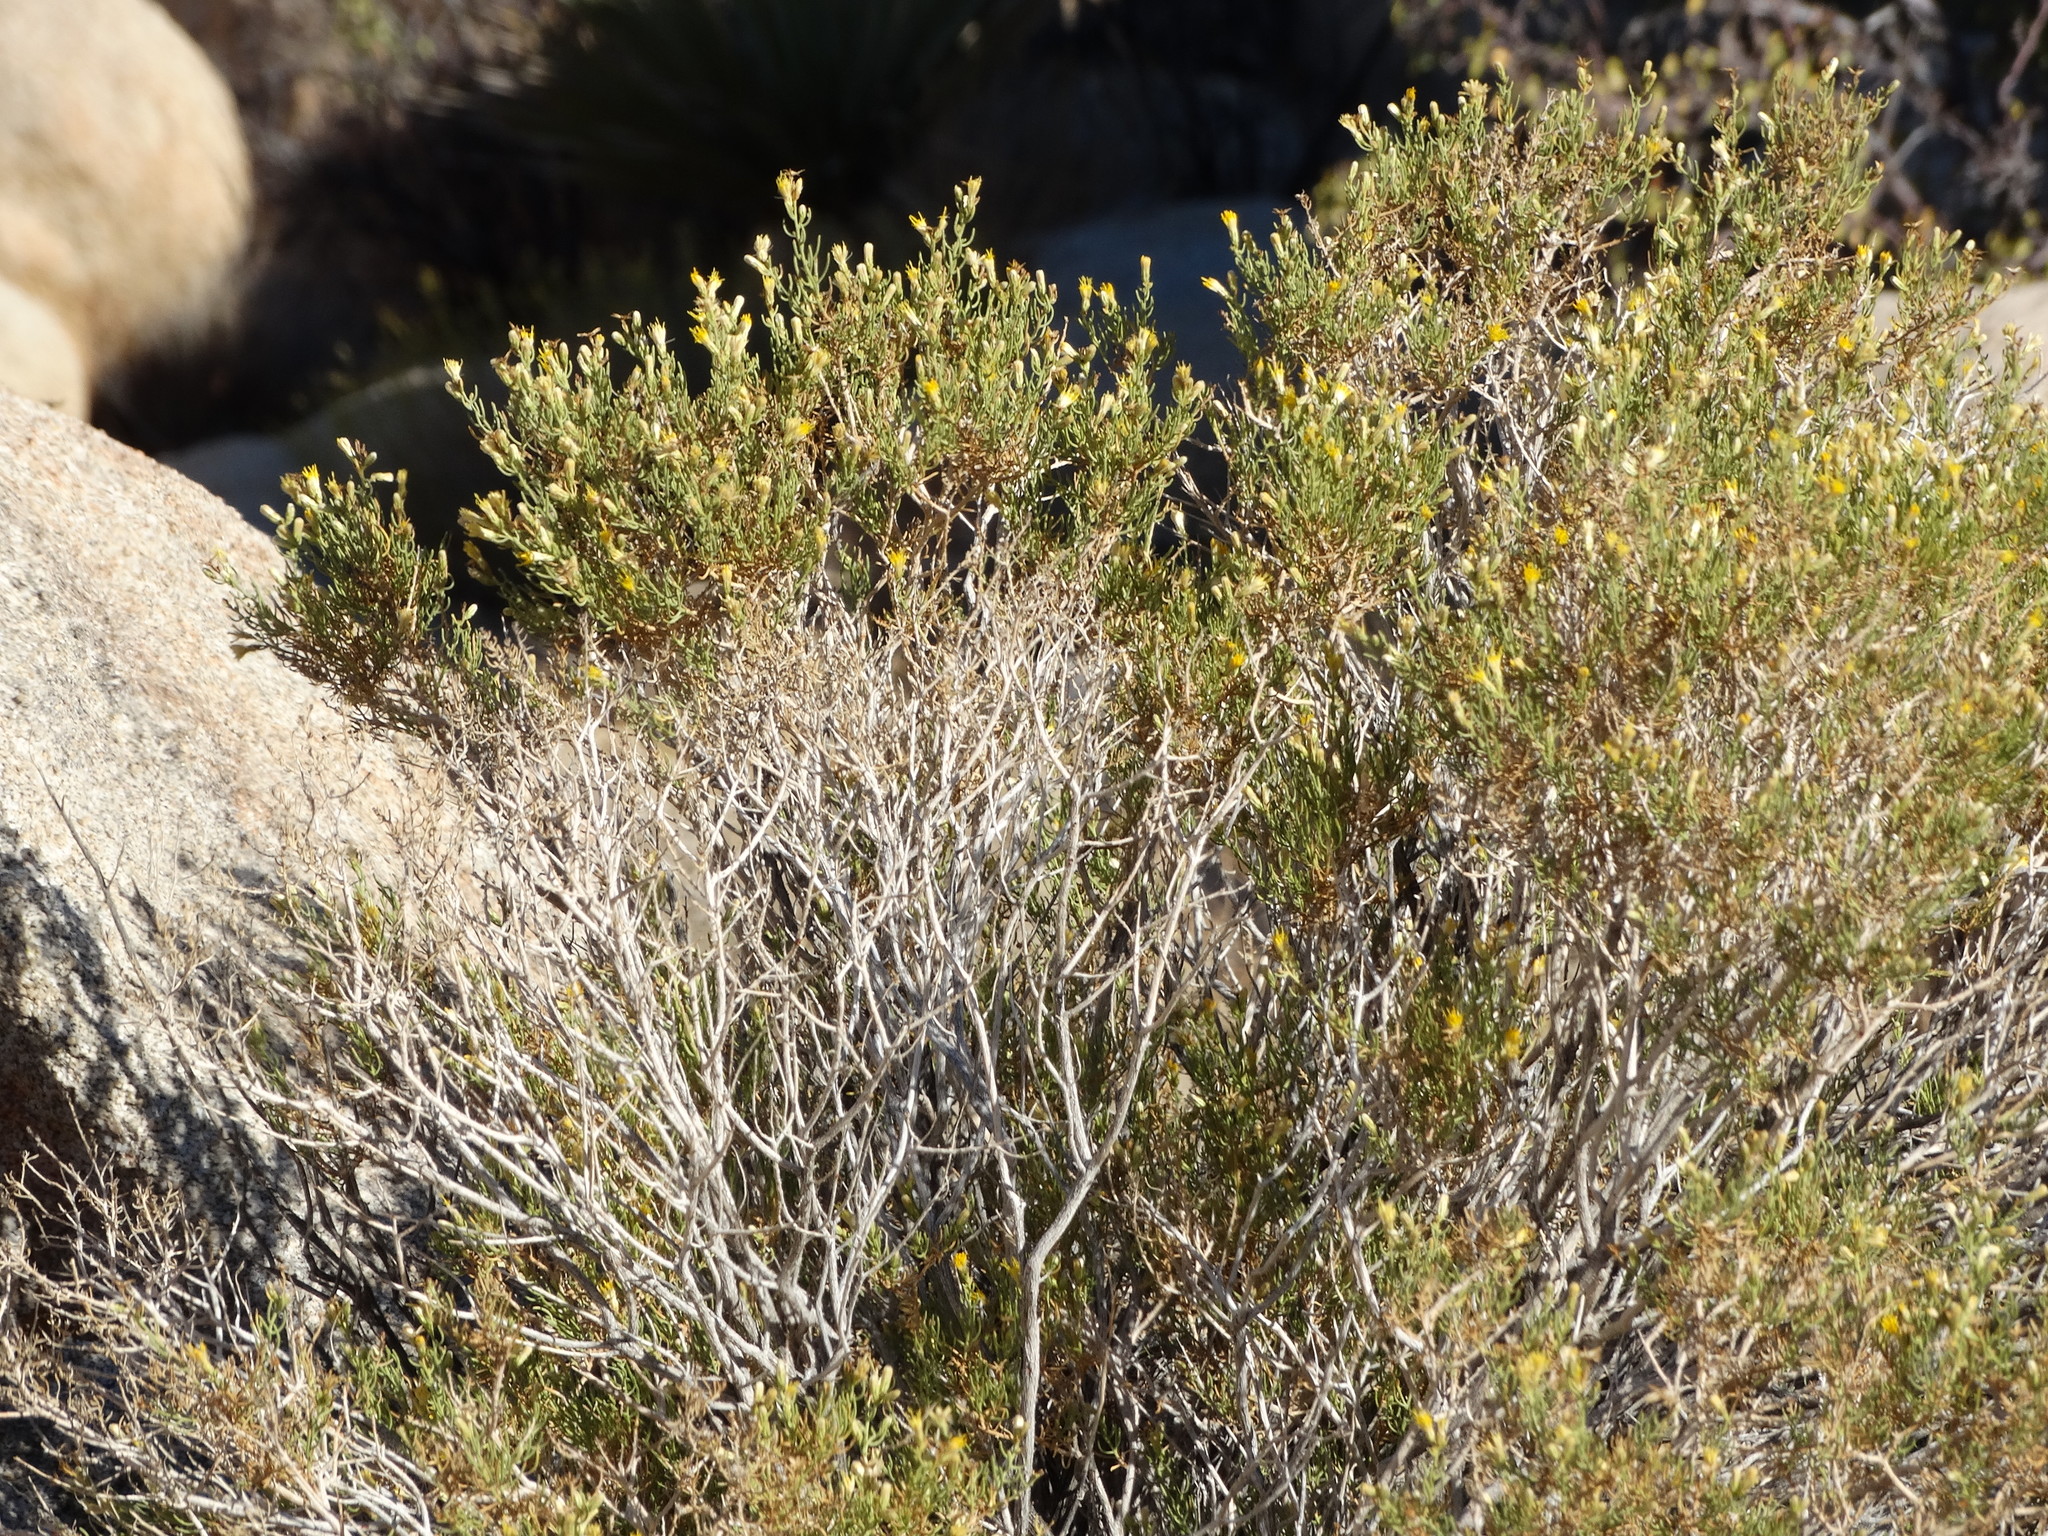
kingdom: Plantae
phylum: Tracheophyta
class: Magnoliopsida
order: Asterales
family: Asteraceae
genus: Ericameria
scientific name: Ericameria brachylepis
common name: Boundary goldenbush
